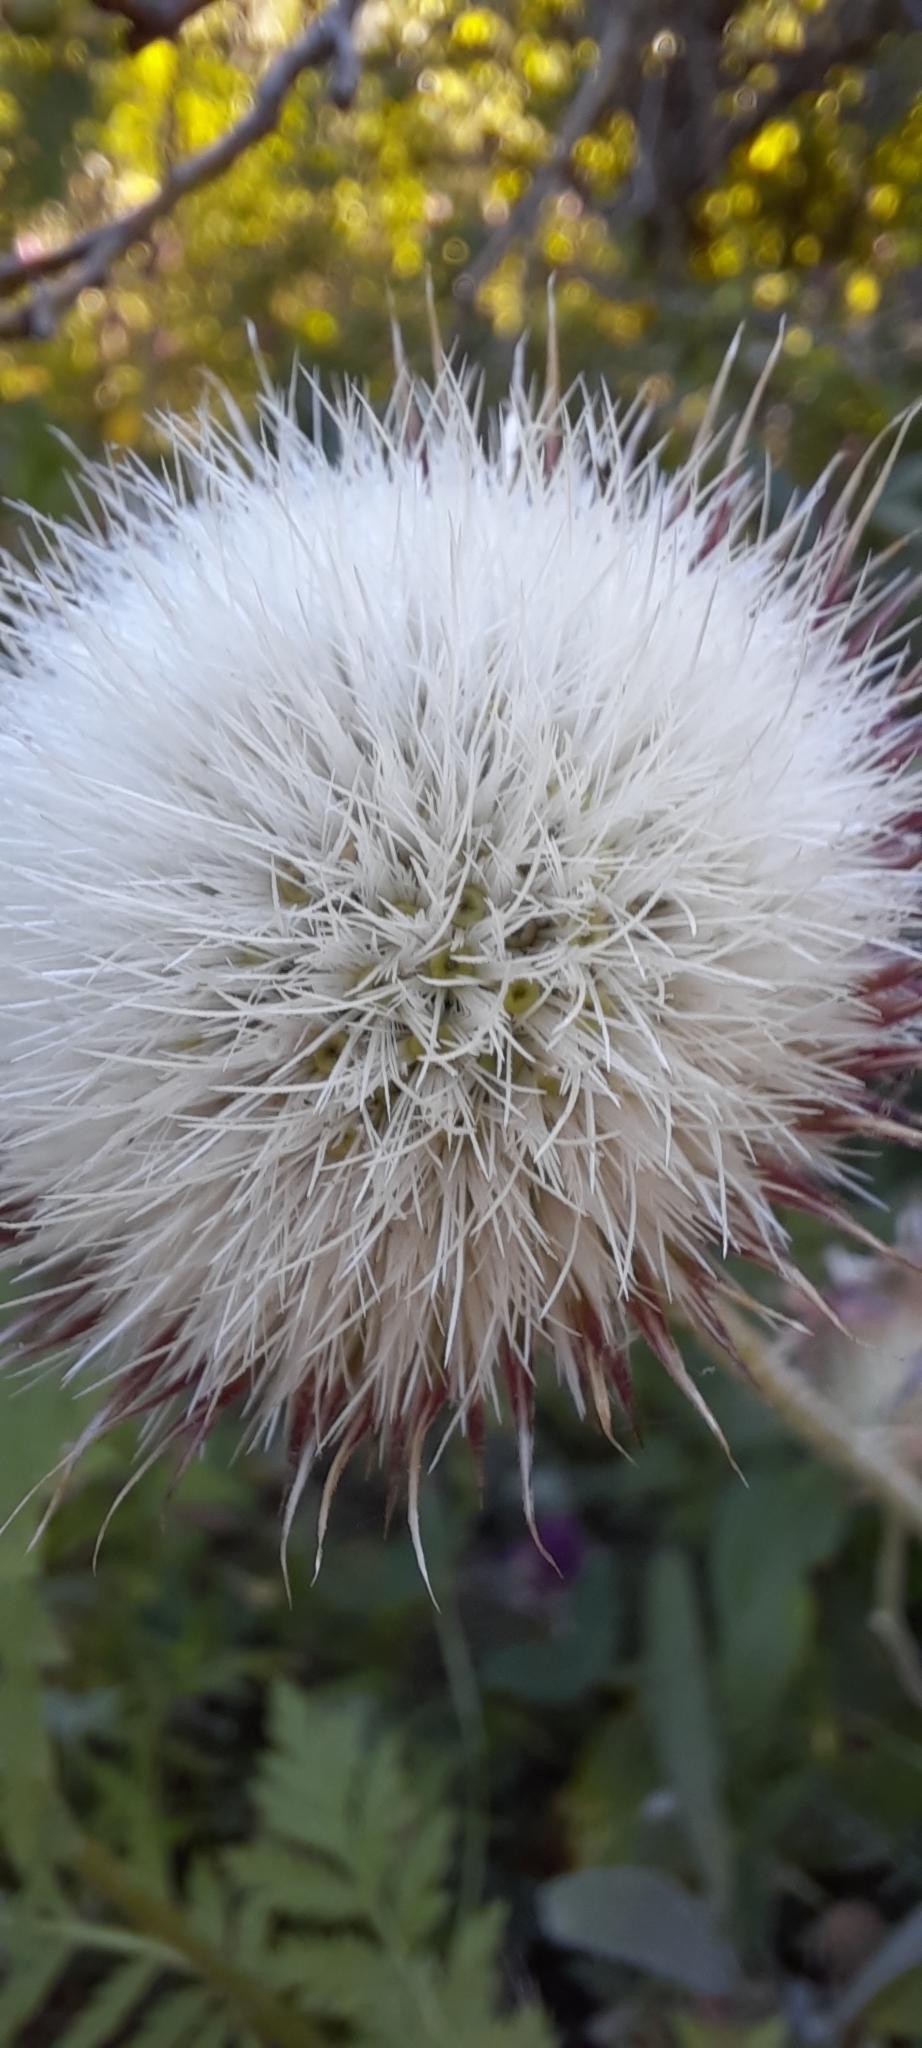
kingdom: Plantae
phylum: Tracheophyta
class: Magnoliopsida
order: Asterales
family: Asteraceae
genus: Jurinea
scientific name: Jurinea roegneri
